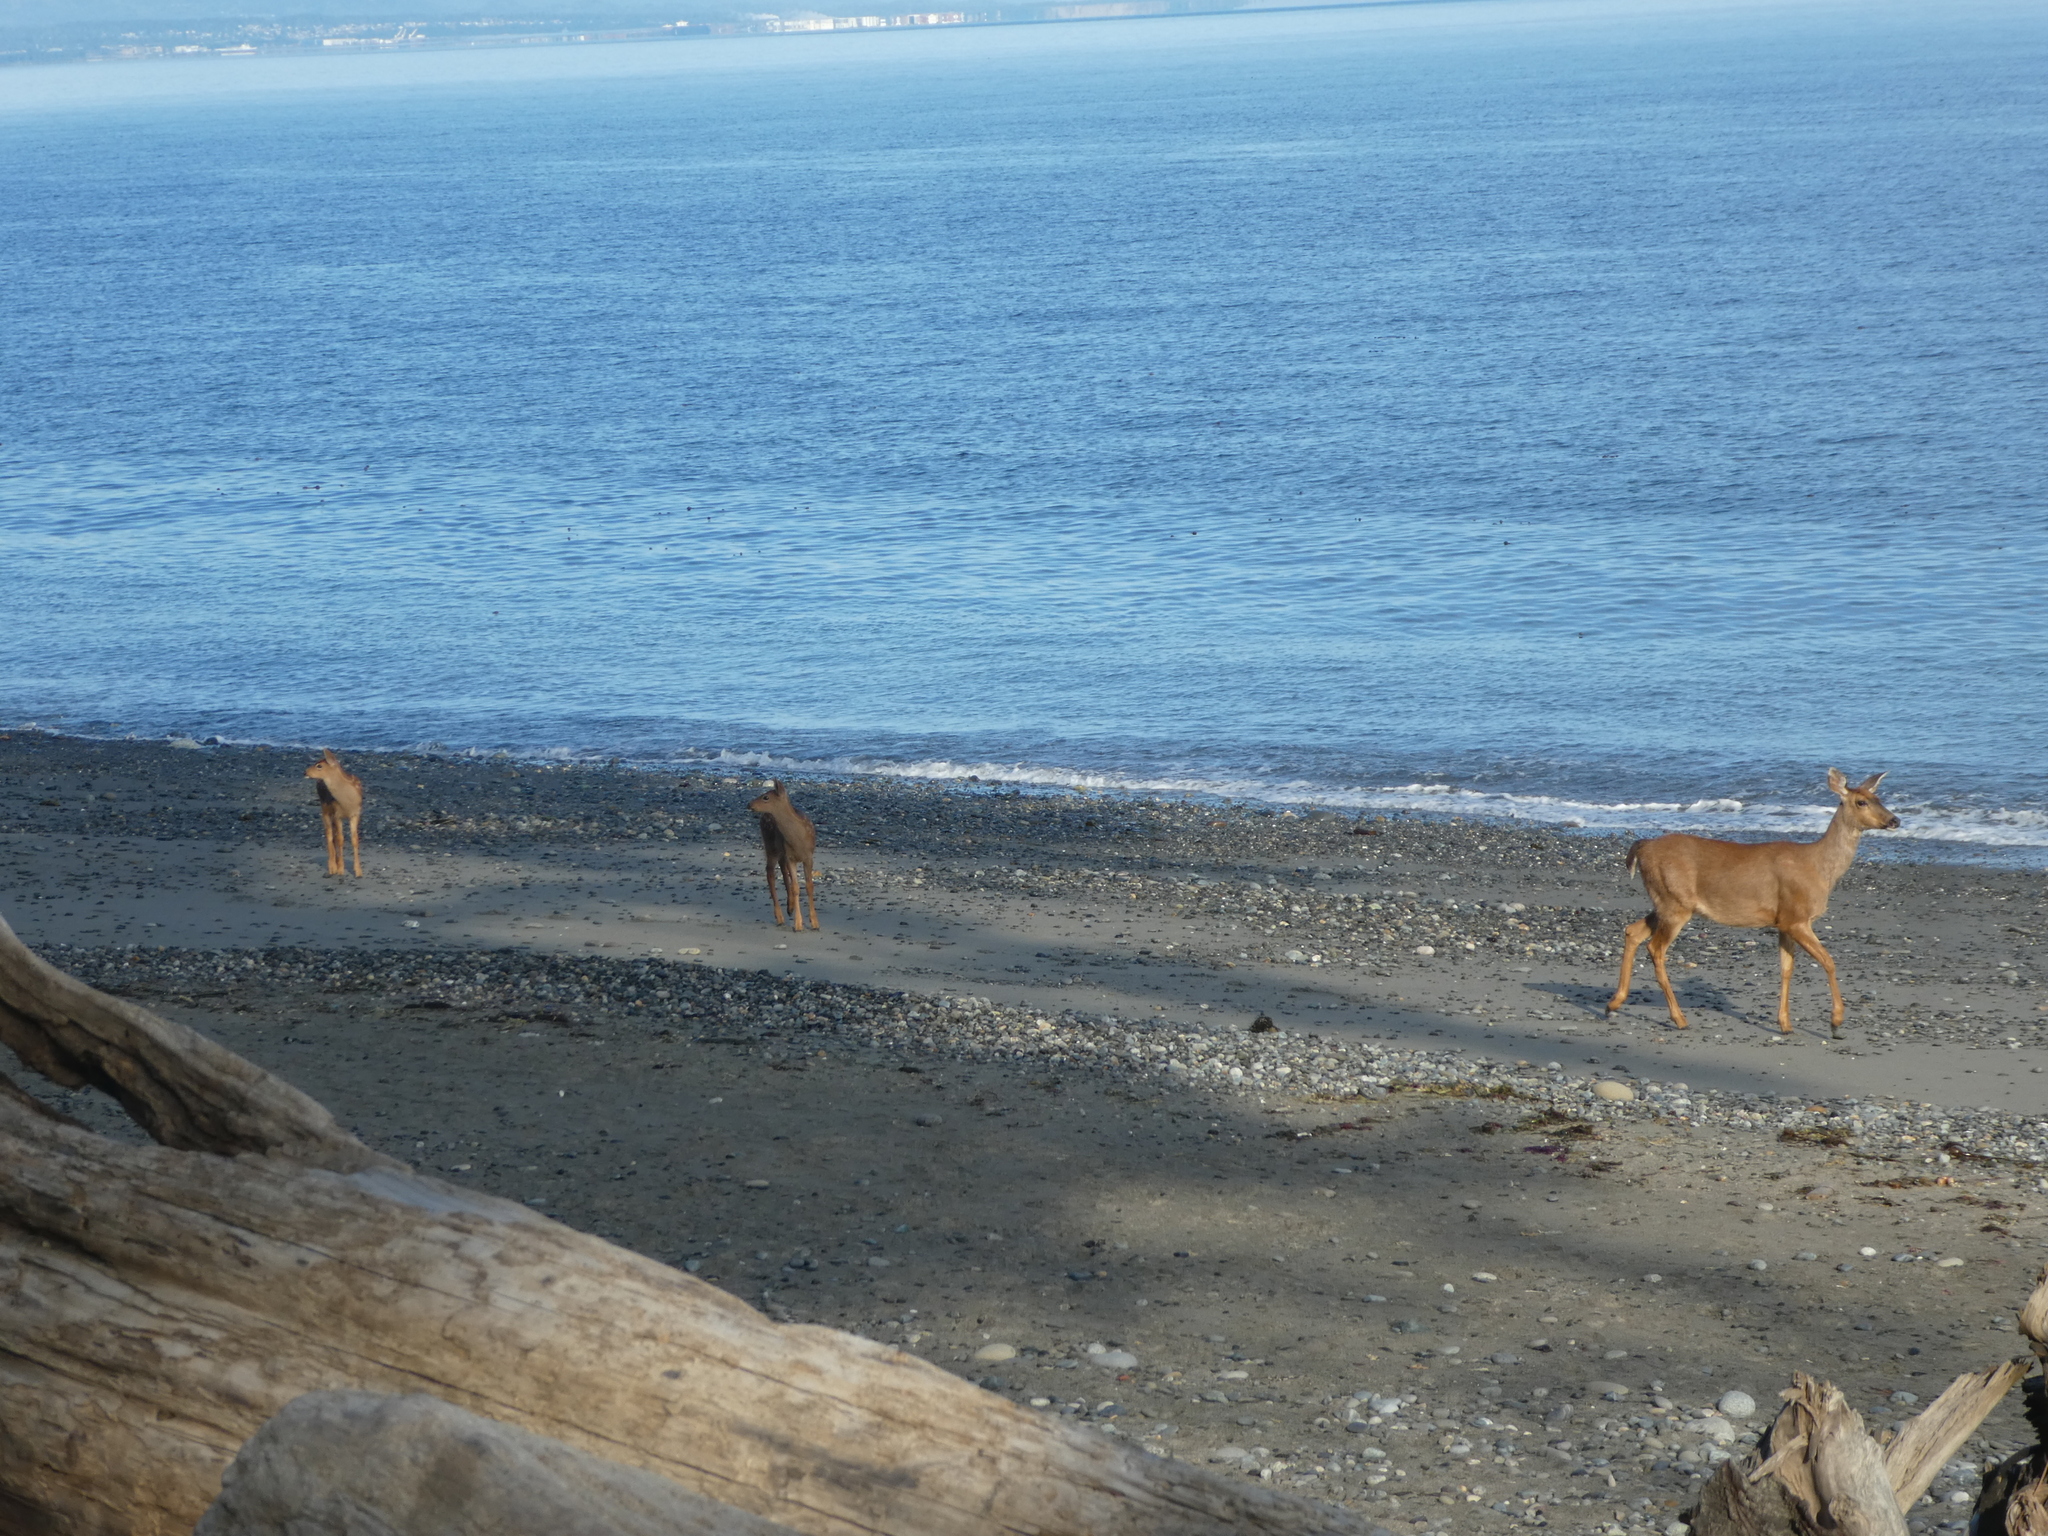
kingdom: Animalia
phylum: Chordata
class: Mammalia
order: Artiodactyla
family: Cervidae
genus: Odocoileus
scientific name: Odocoileus hemionus
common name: Mule deer
